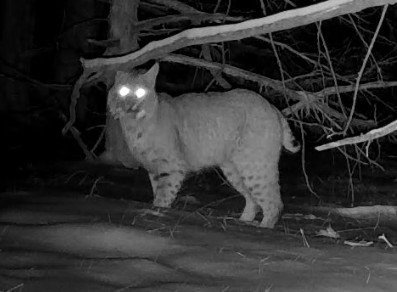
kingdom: Animalia
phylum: Chordata
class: Mammalia
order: Carnivora
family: Felidae
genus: Lynx
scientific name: Lynx rufus
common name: Bobcat
